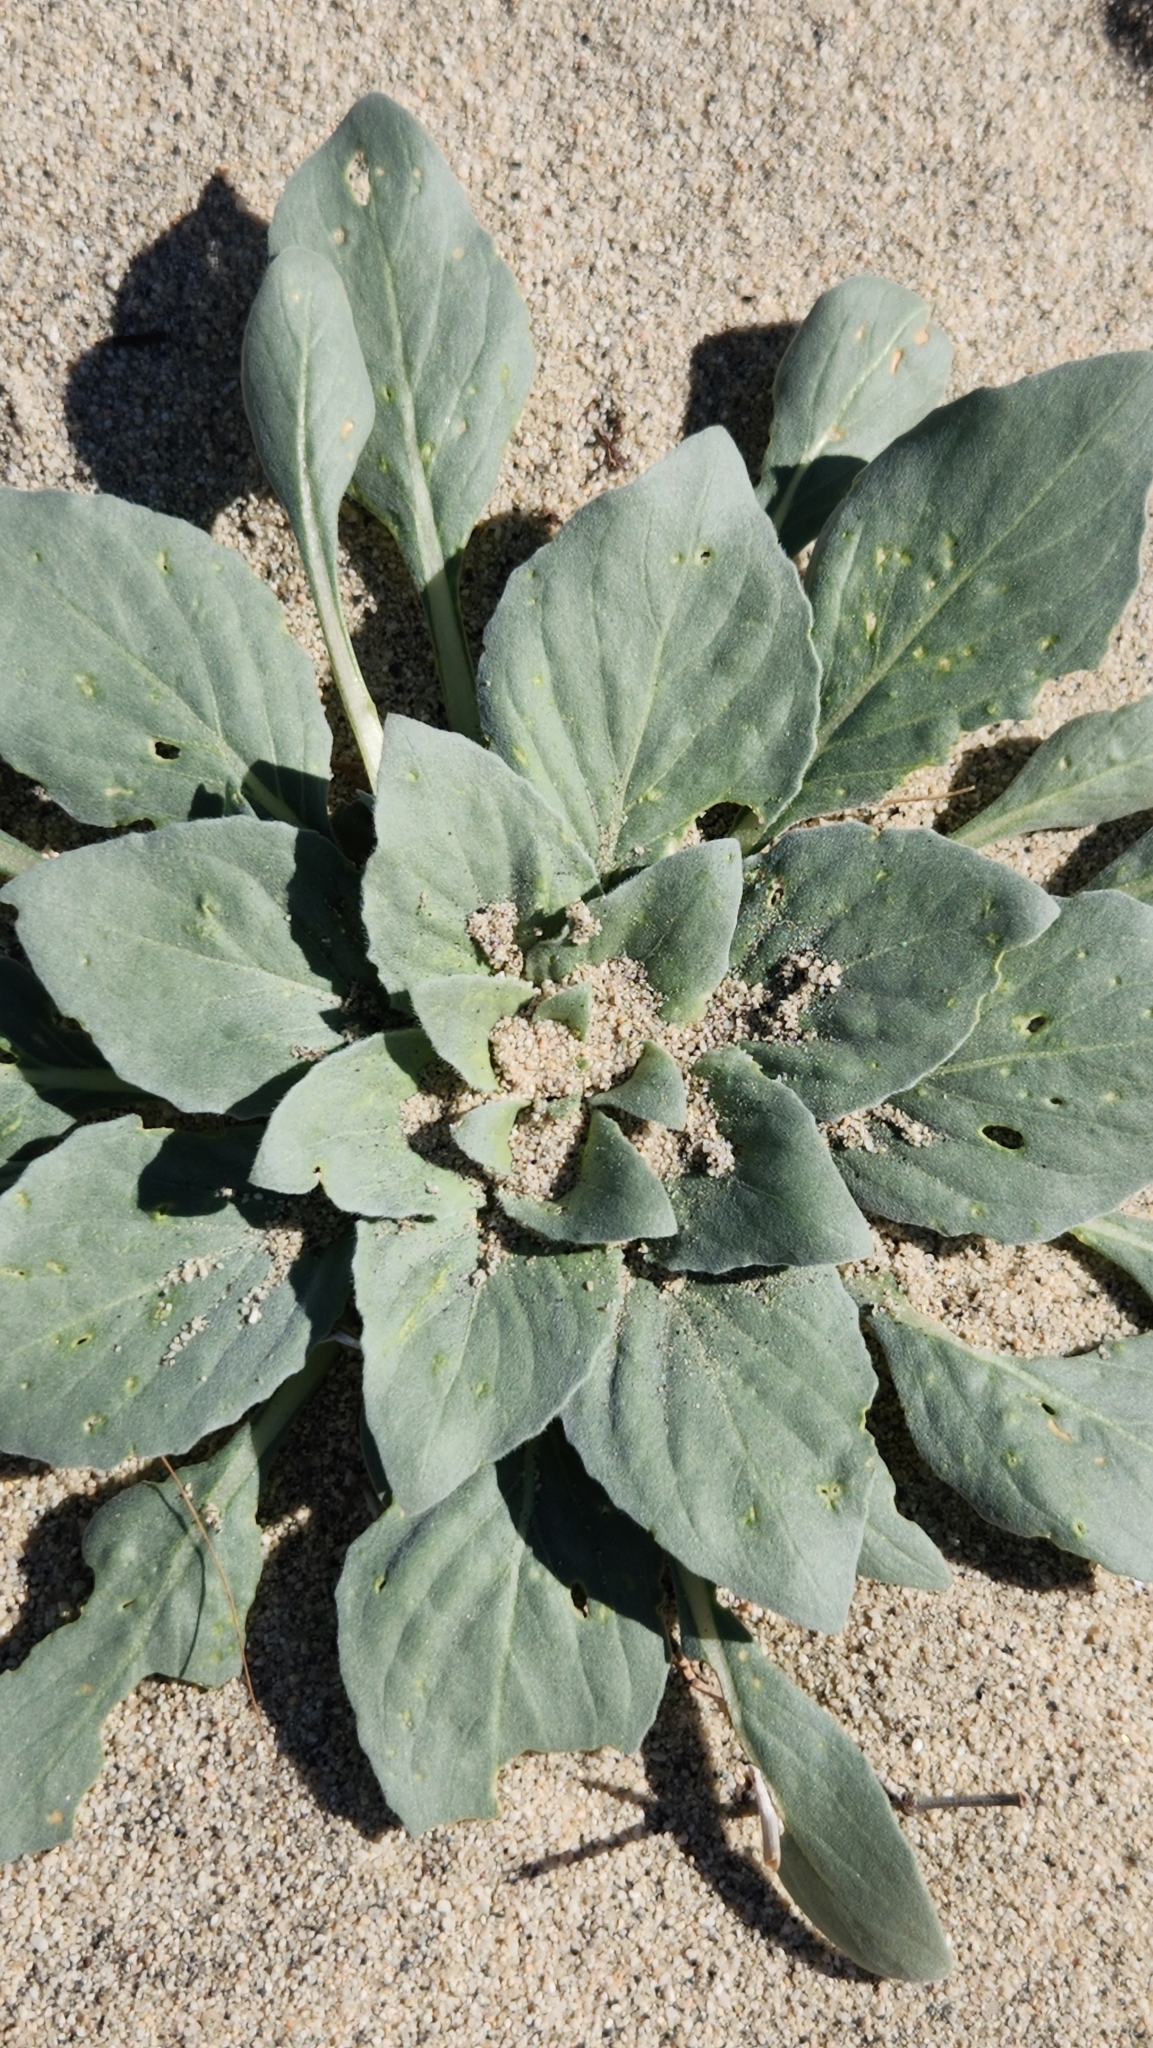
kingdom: Plantae
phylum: Tracheophyta
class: Magnoliopsida
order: Myrtales
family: Onagraceae
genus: Oenothera
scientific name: Oenothera deltoides
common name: Basket evening-primrose
